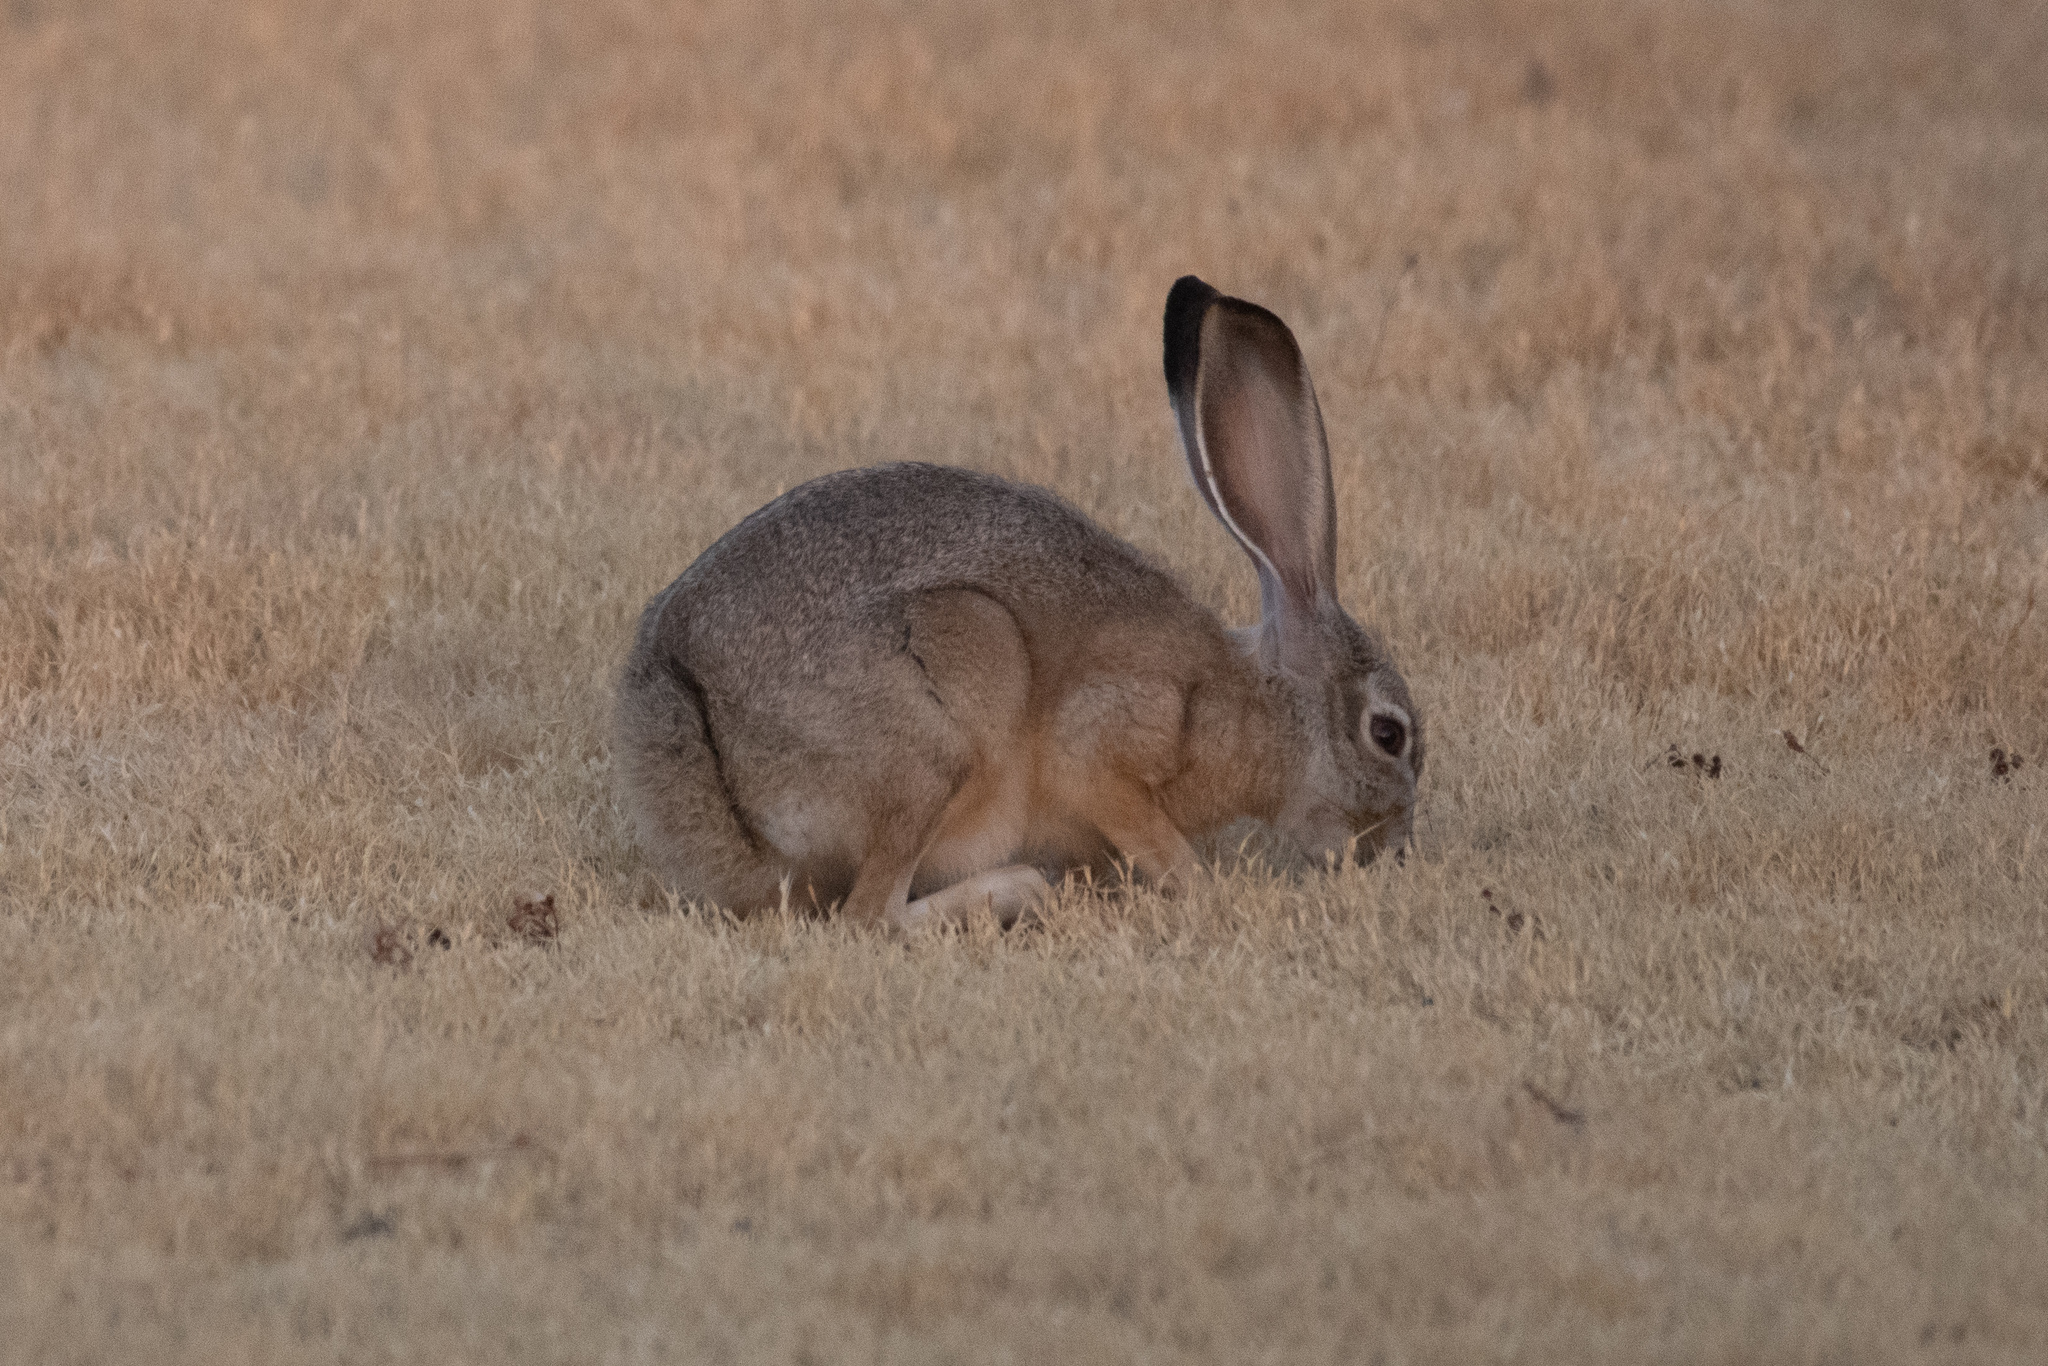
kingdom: Animalia
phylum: Chordata
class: Mammalia
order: Lagomorpha
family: Leporidae
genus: Lepus
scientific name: Lepus californicus
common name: Black-tailed jackrabbit
